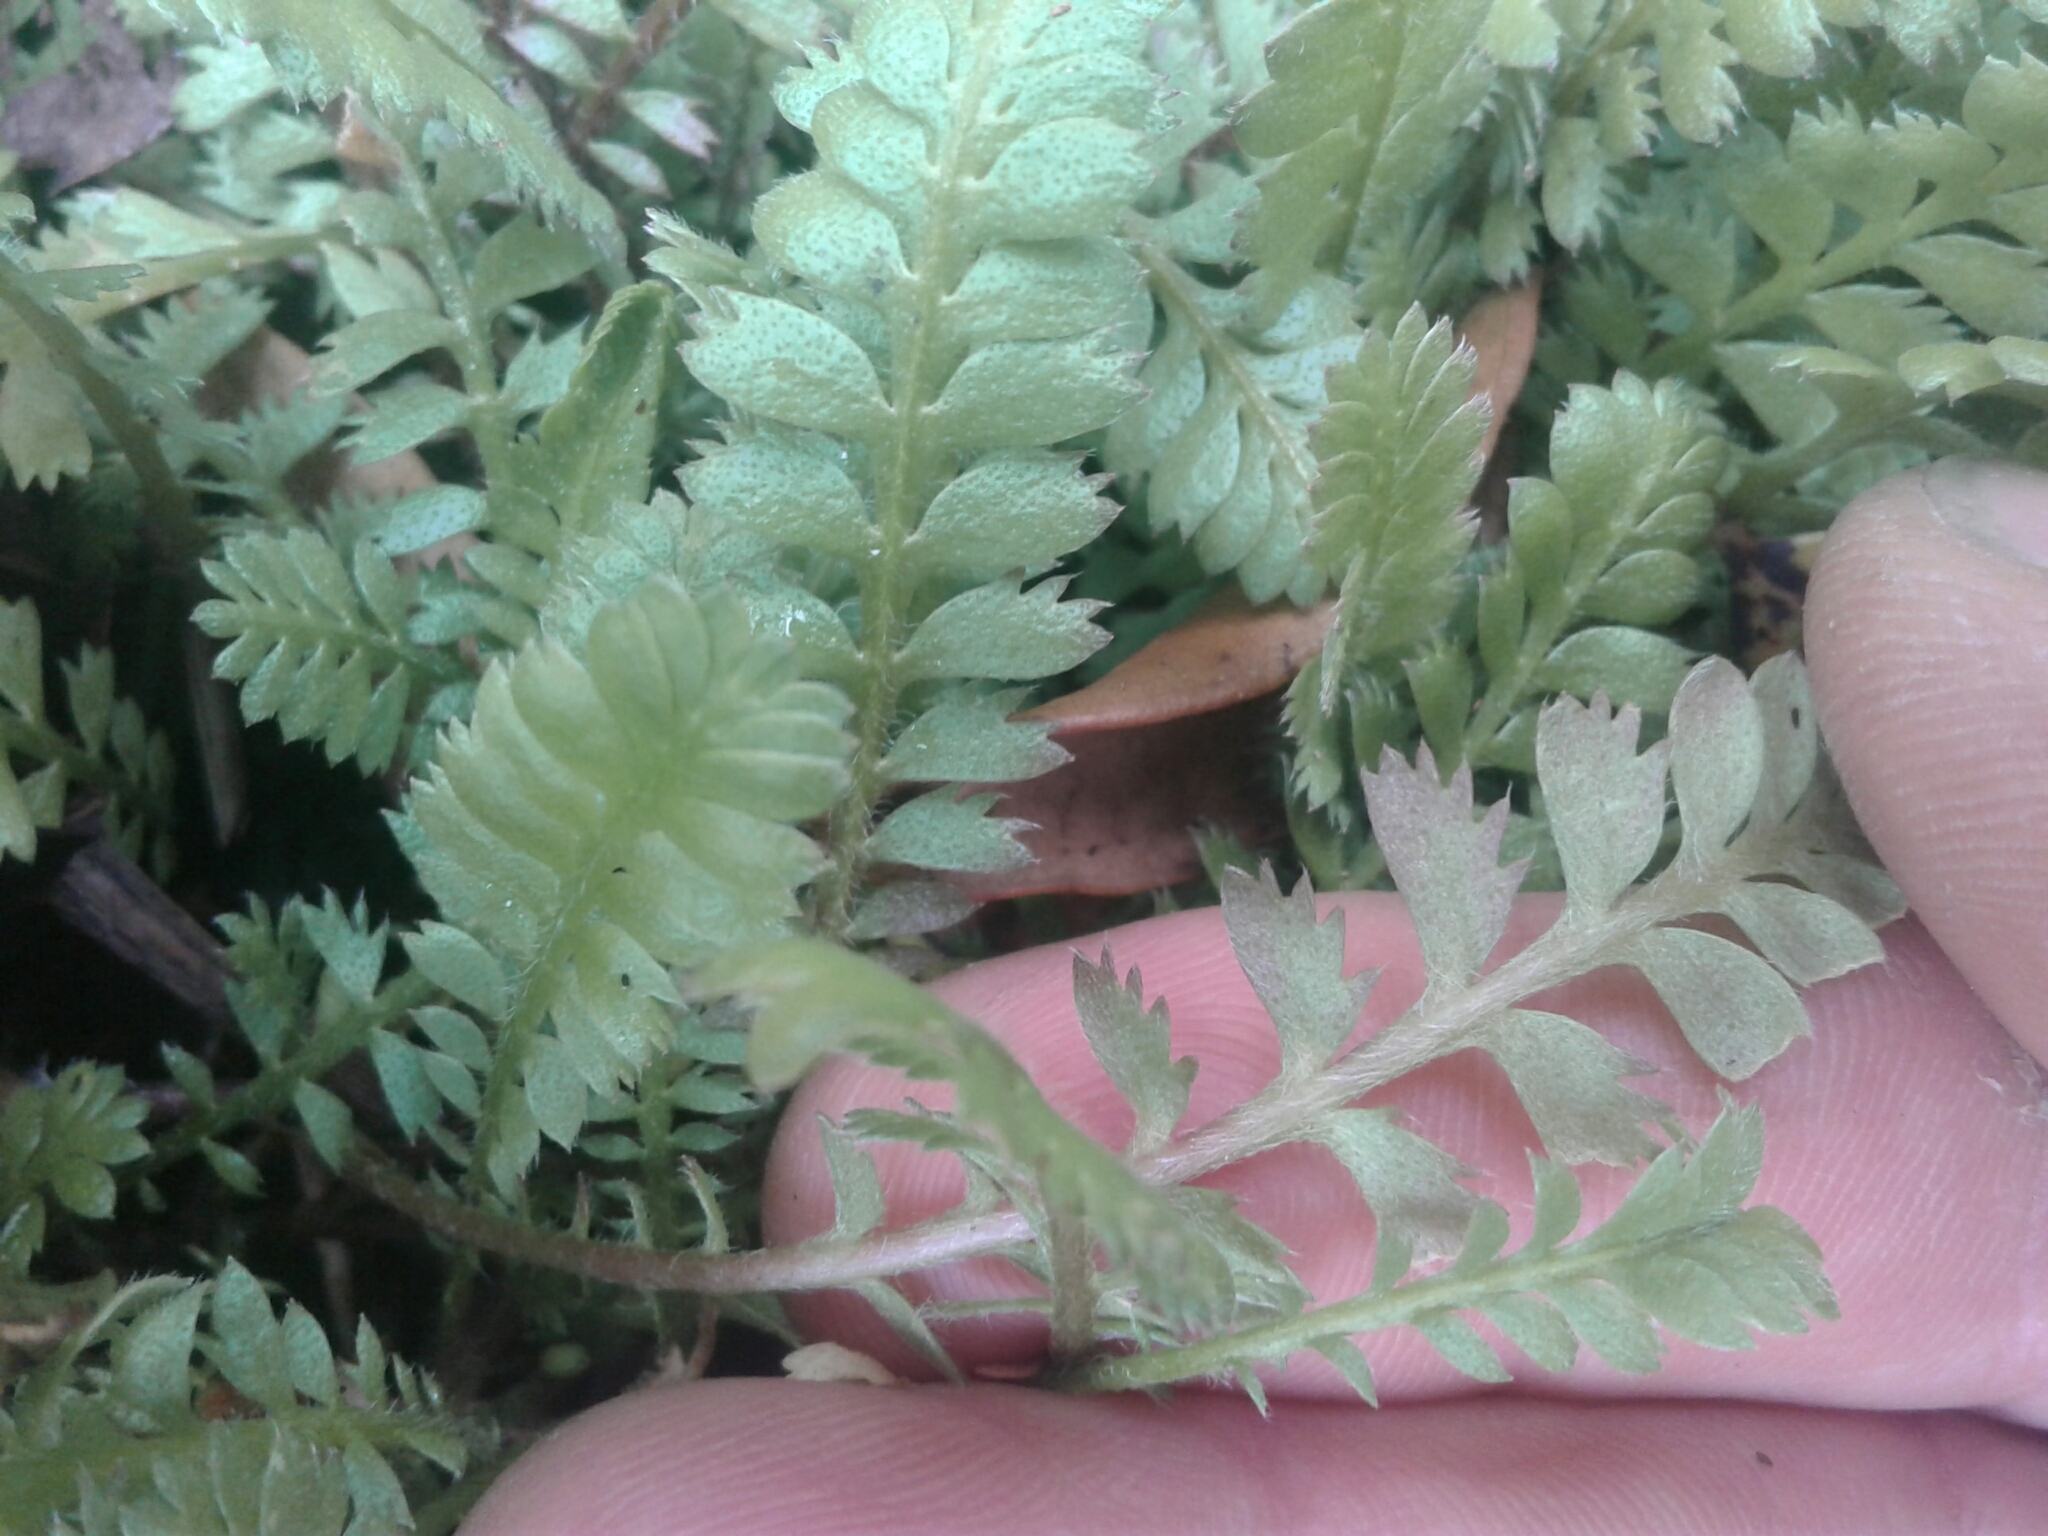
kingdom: Plantae
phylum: Tracheophyta
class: Magnoliopsida
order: Asterales
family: Asteraceae
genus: Leptinella
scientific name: Leptinella squalida
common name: New zealand brass-buttons
